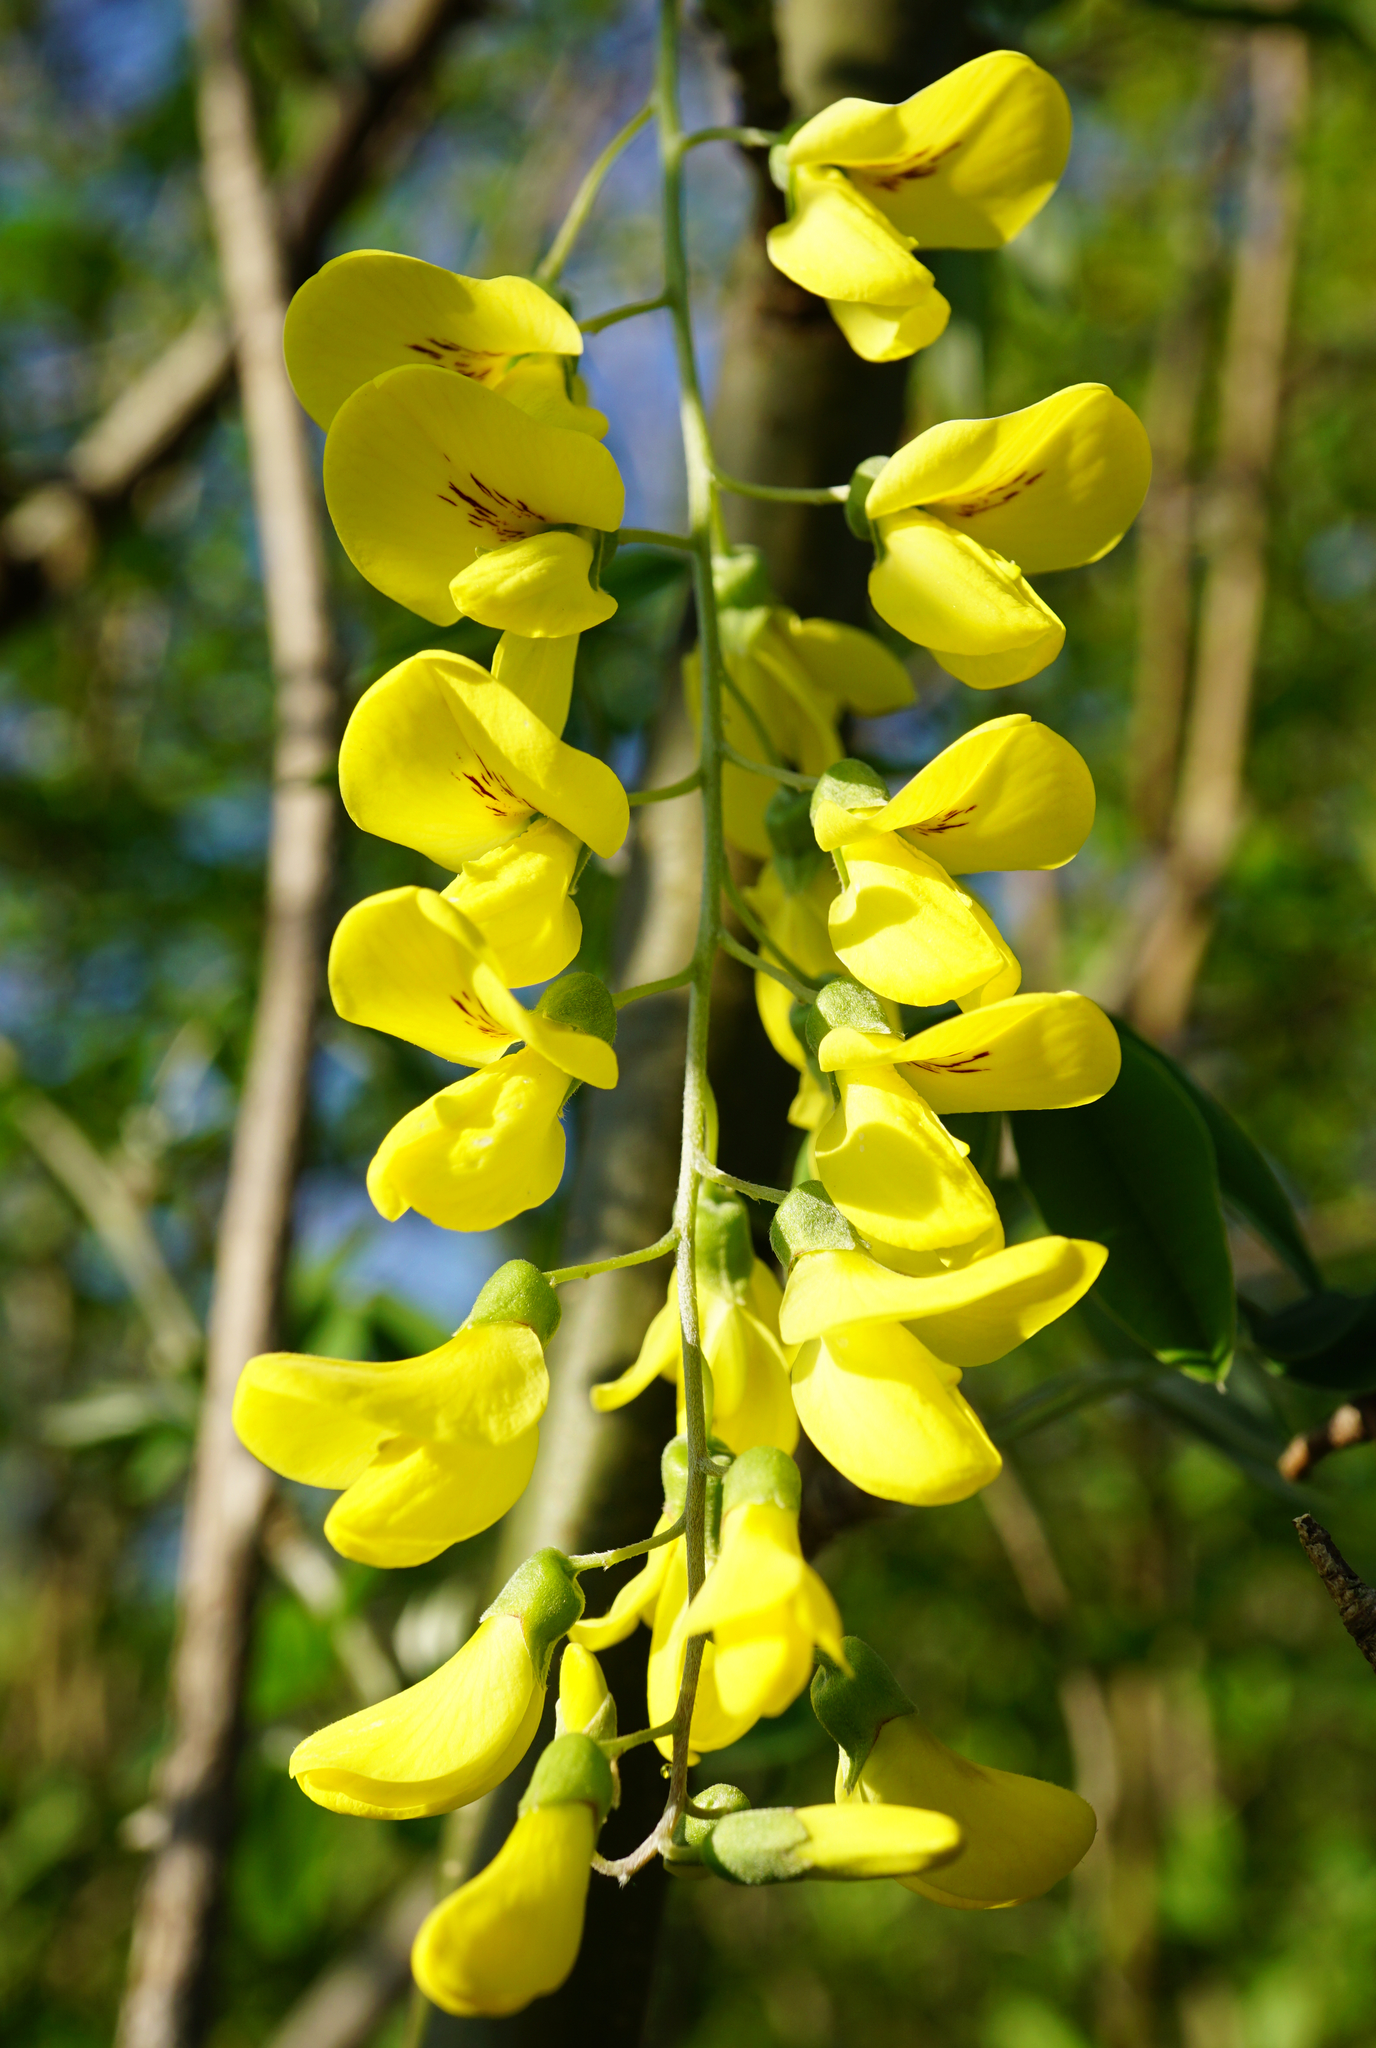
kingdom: Plantae
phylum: Tracheophyta
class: Magnoliopsida
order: Fabales
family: Fabaceae
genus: Laburnum
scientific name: Laburnum anagyroides
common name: Laburnum
